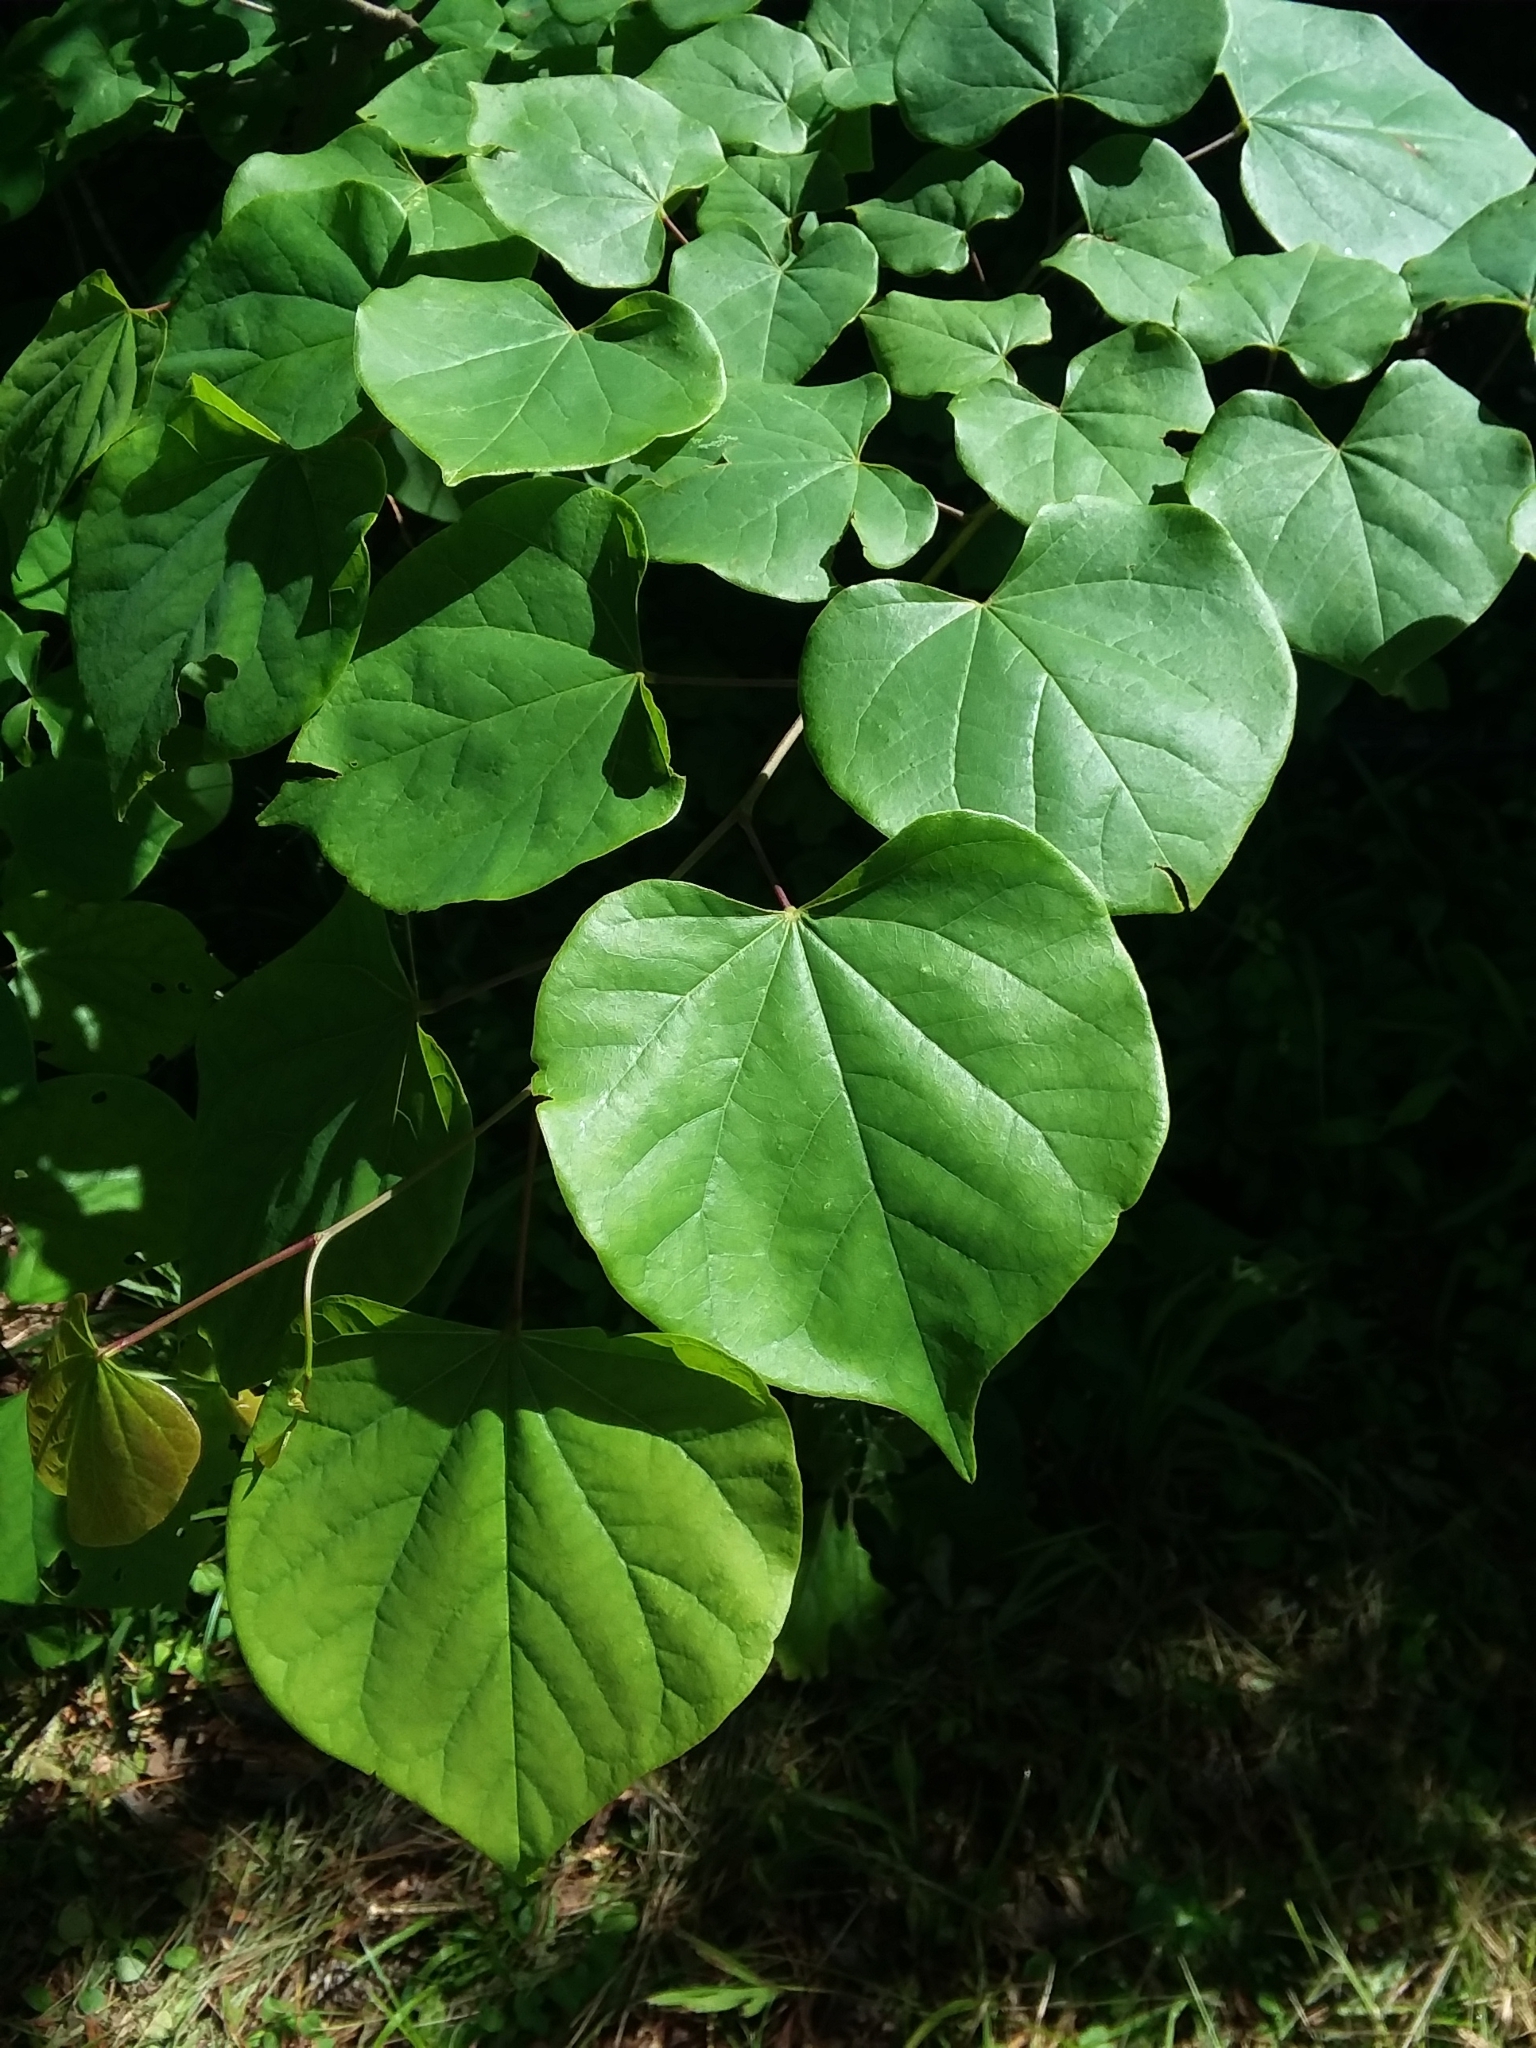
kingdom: Plantae
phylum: Tracheophyta
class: Magnoliopsida
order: Fabales
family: Fabaceae
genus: Cercis
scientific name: Cercis canadensis
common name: Eastern redbud
